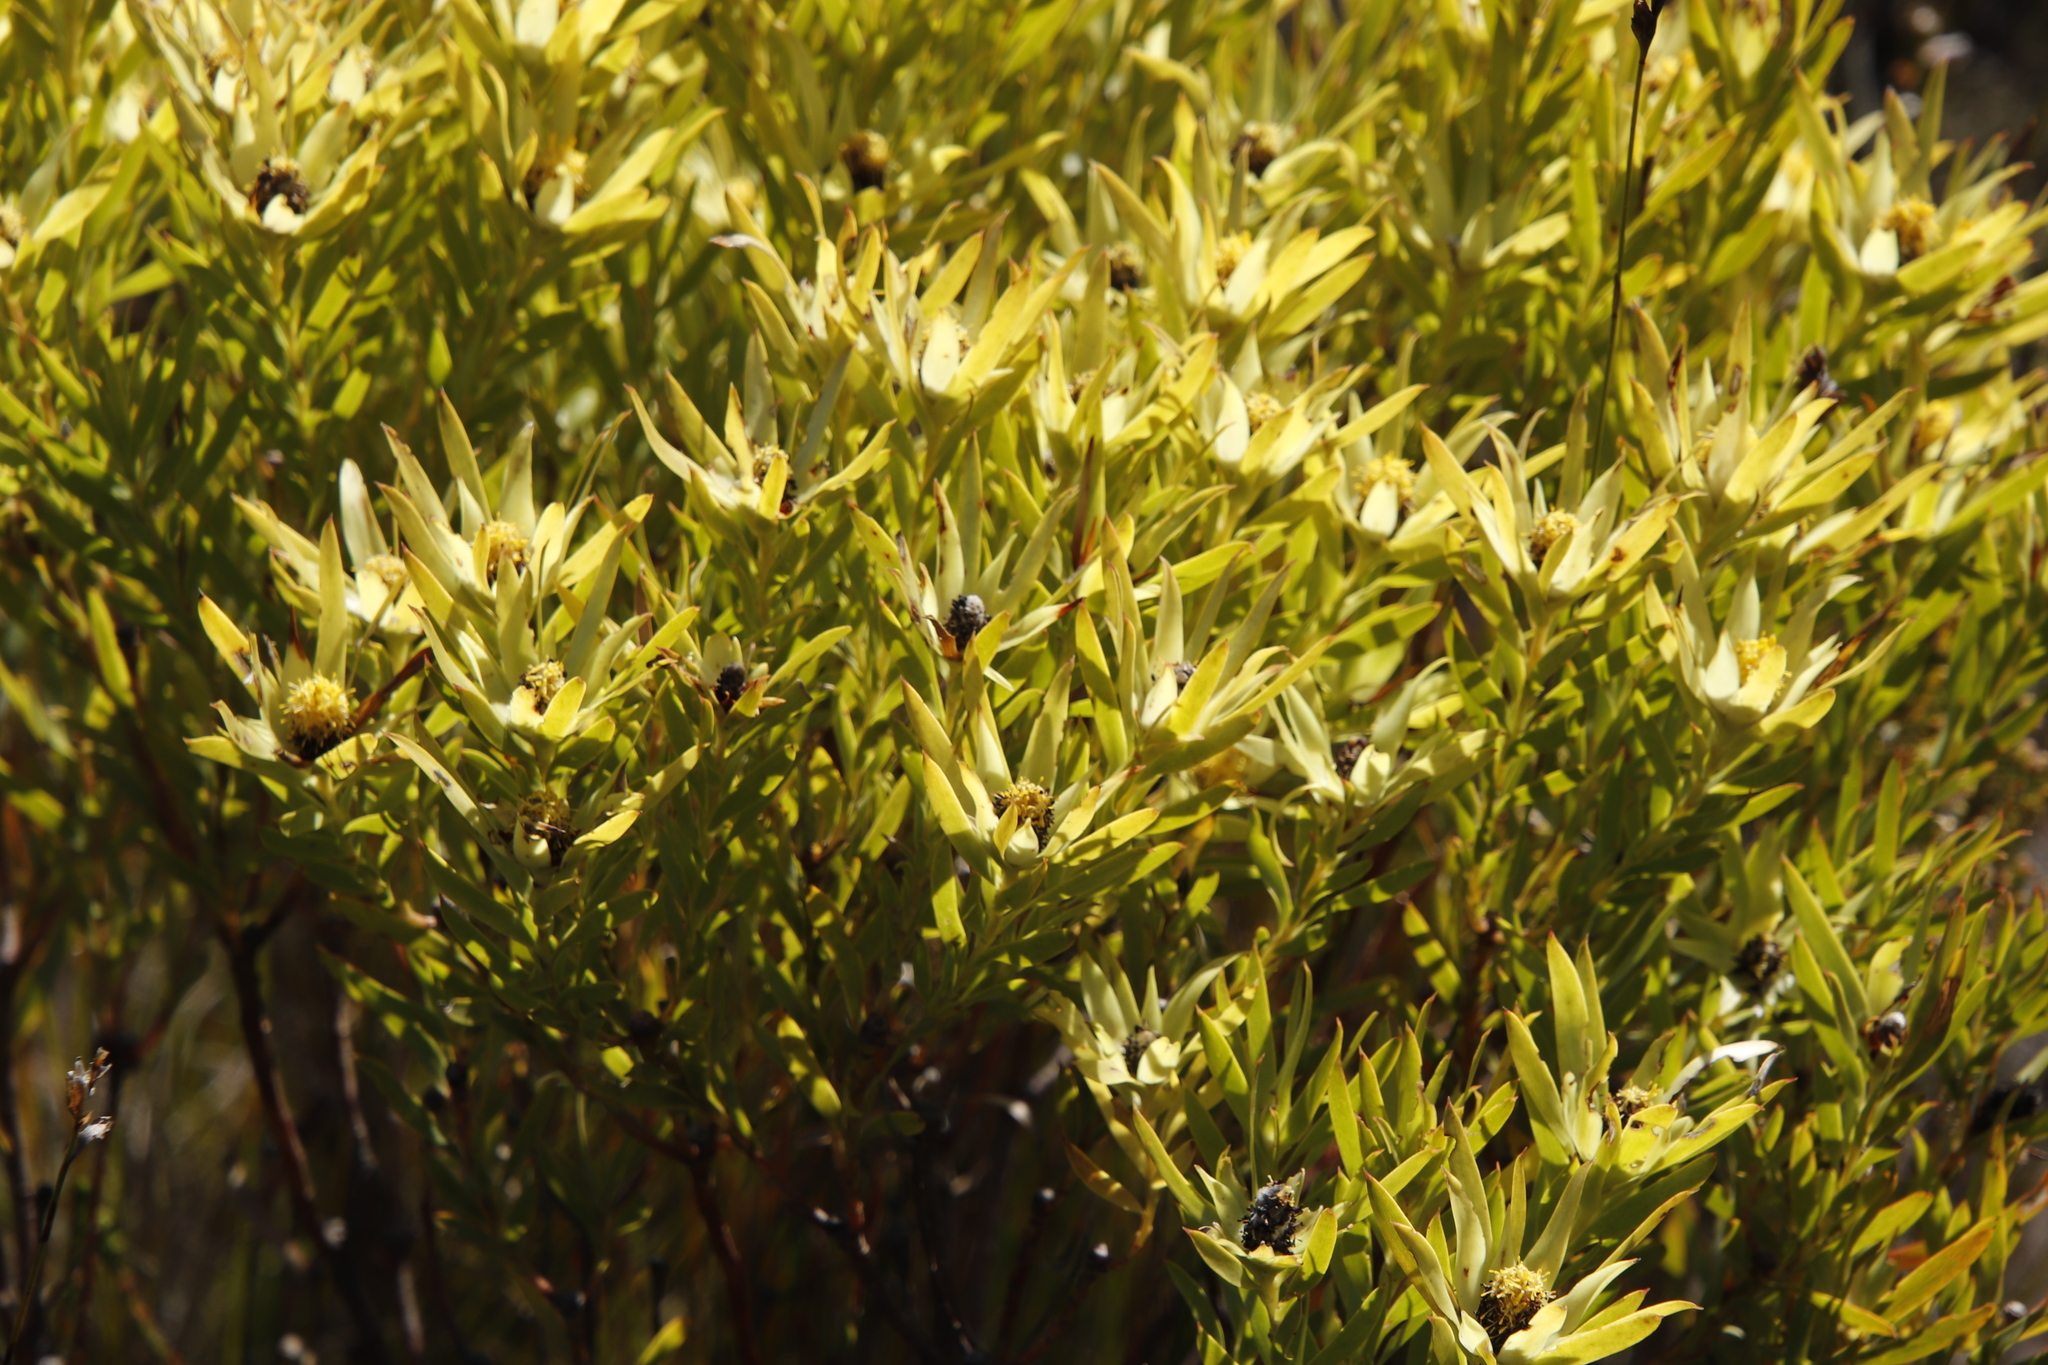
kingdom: Plantae
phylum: Tracheophyta
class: Magnoliopsida
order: Proteales
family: Proteaceae
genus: Leucadendron
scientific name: Leucadendron xanthoconus
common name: Sickle-leaf conebush
